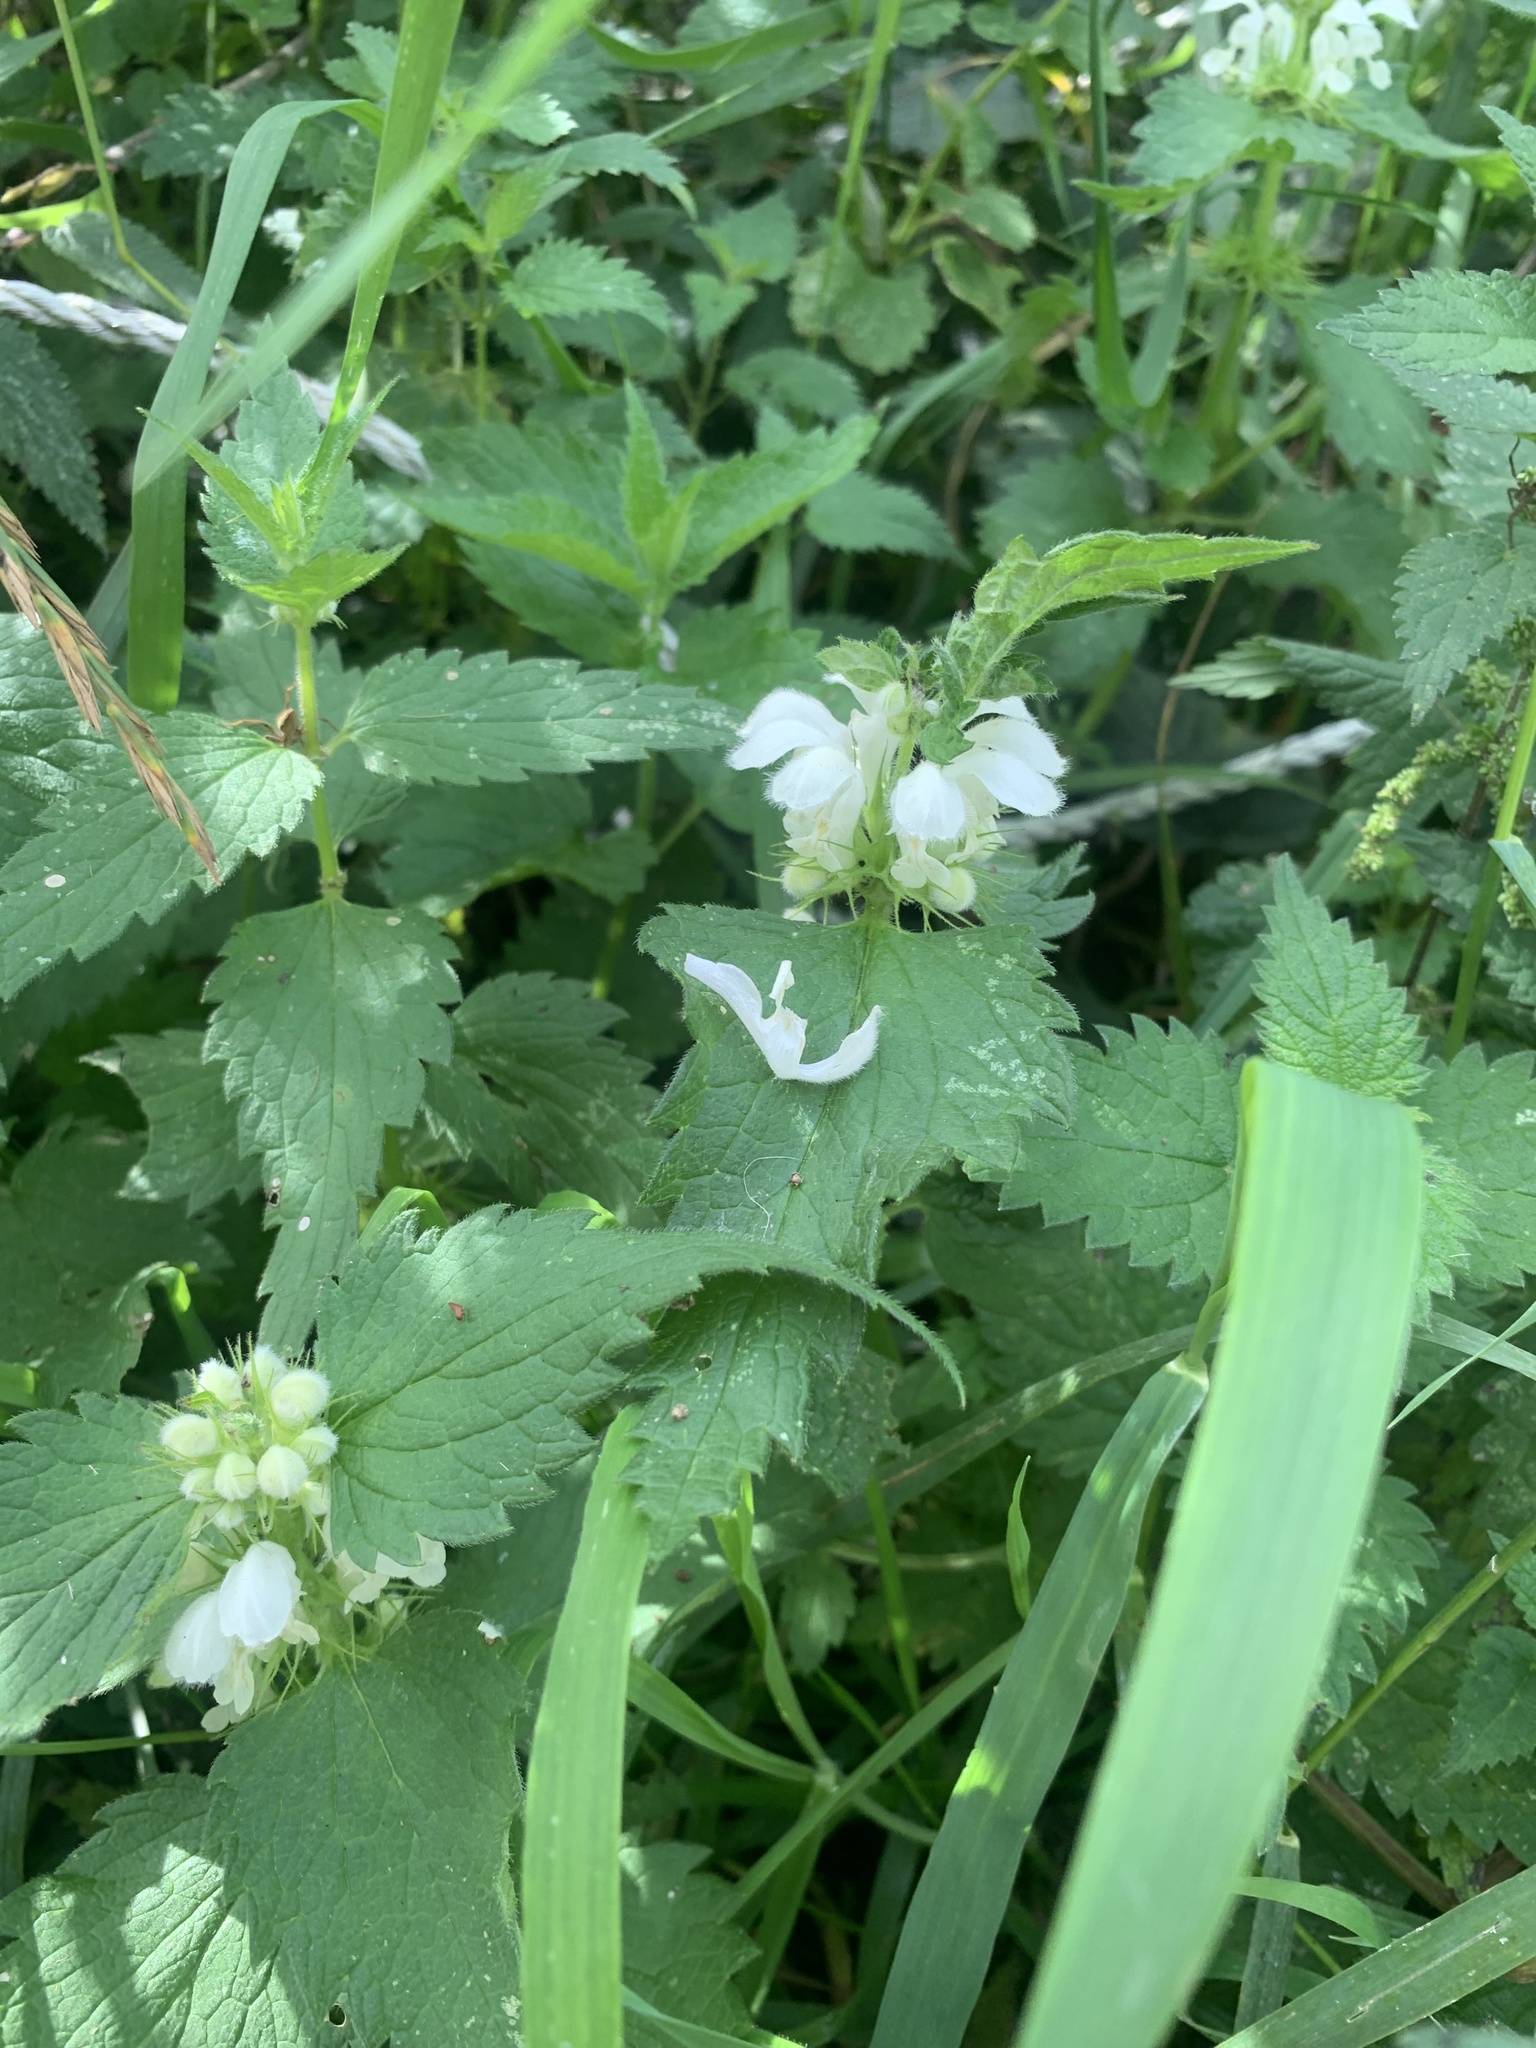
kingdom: Plantae
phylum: Tracheophyta
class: Magnoliopsida
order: Lamiales
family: Lamiaceae
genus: Lamium
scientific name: Lamium album
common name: White dead-nettle
